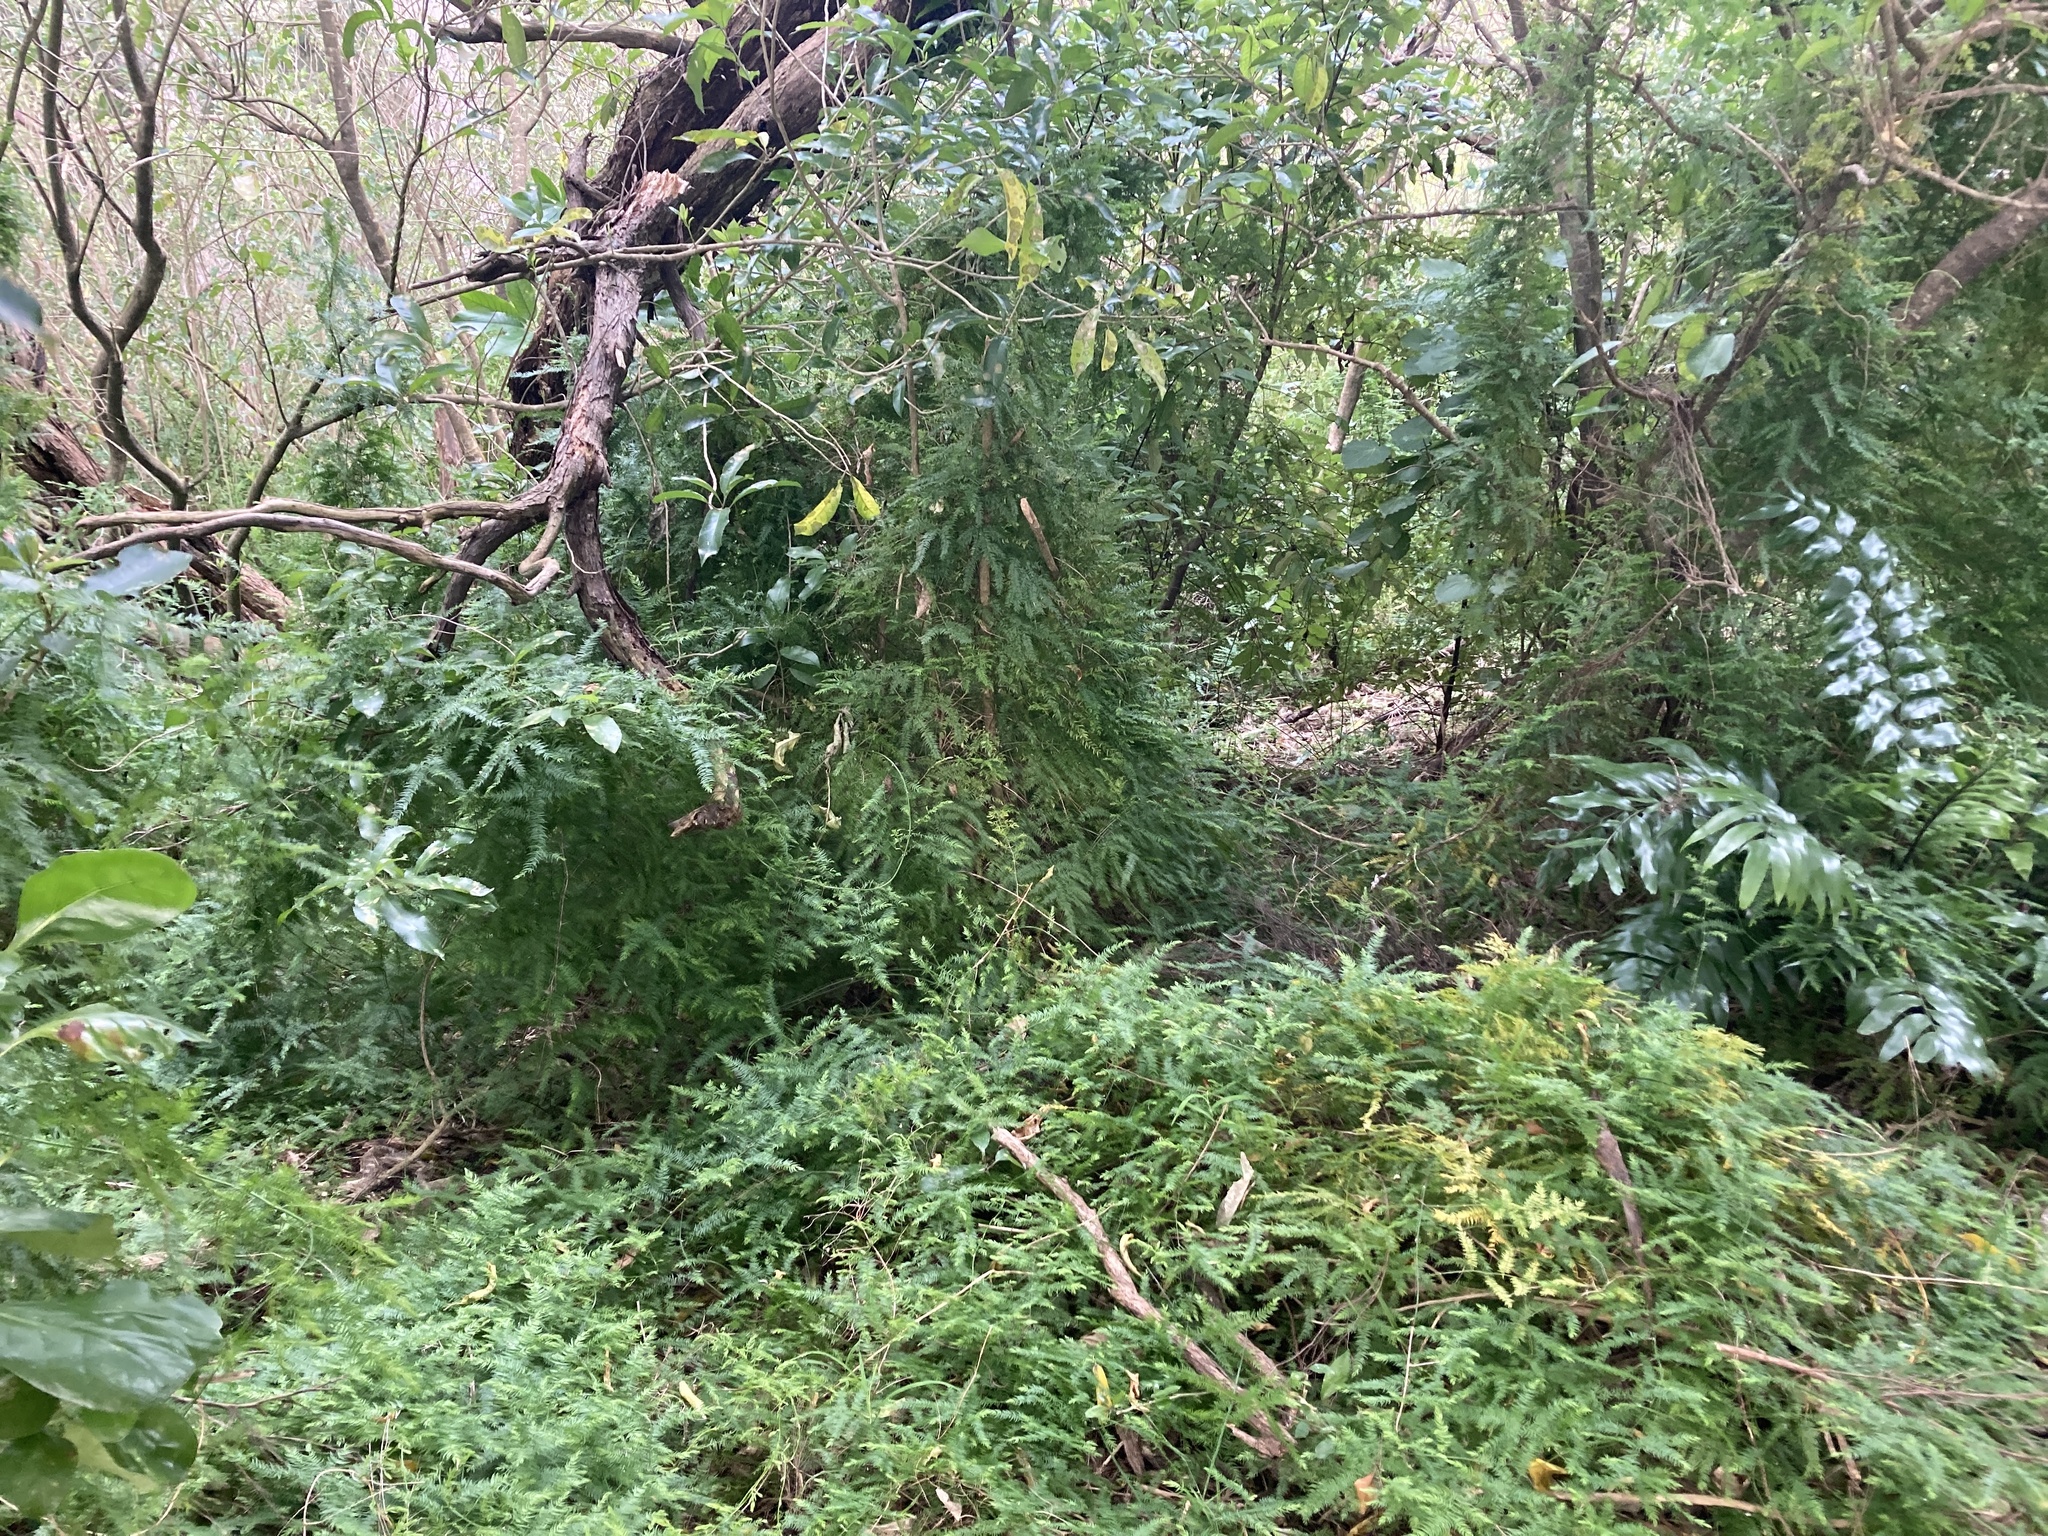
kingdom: Plantae
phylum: Tracheophyta
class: Liliopsida
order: Asparagales
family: Asparagaceae
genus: Asparagus
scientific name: Asparagus scandens
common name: Asparagus-fern
